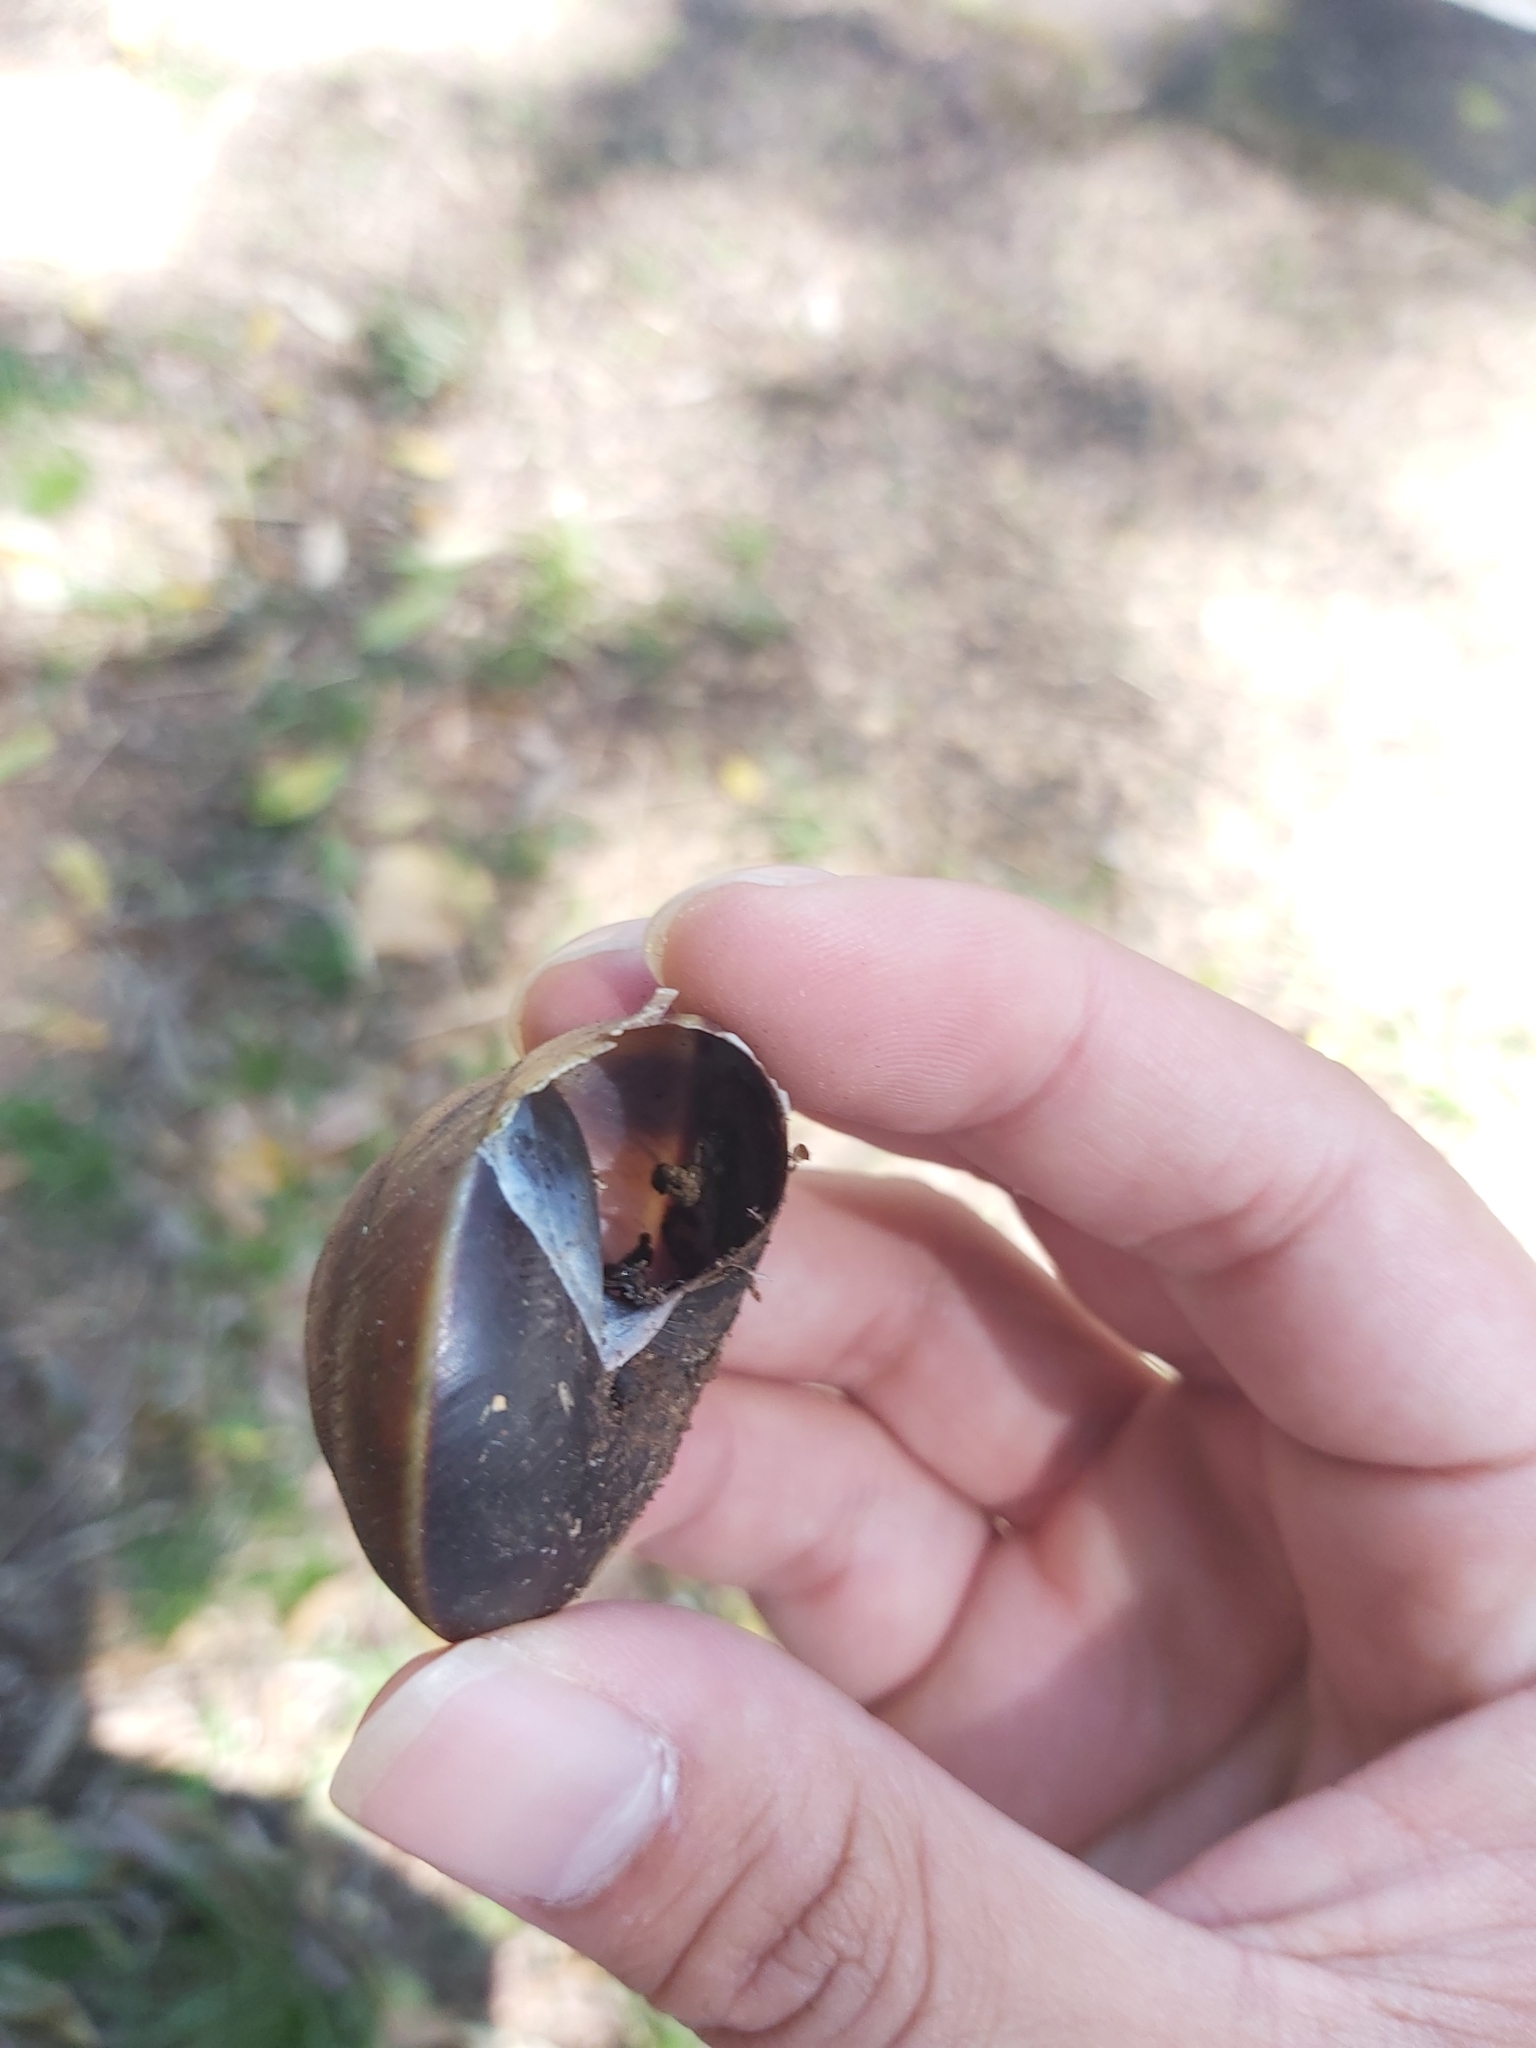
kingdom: Animalia
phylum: Mollusca
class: Gastropoda
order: Stylommatophora
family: Camaenidae
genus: Hadra
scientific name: Hadra webbi
